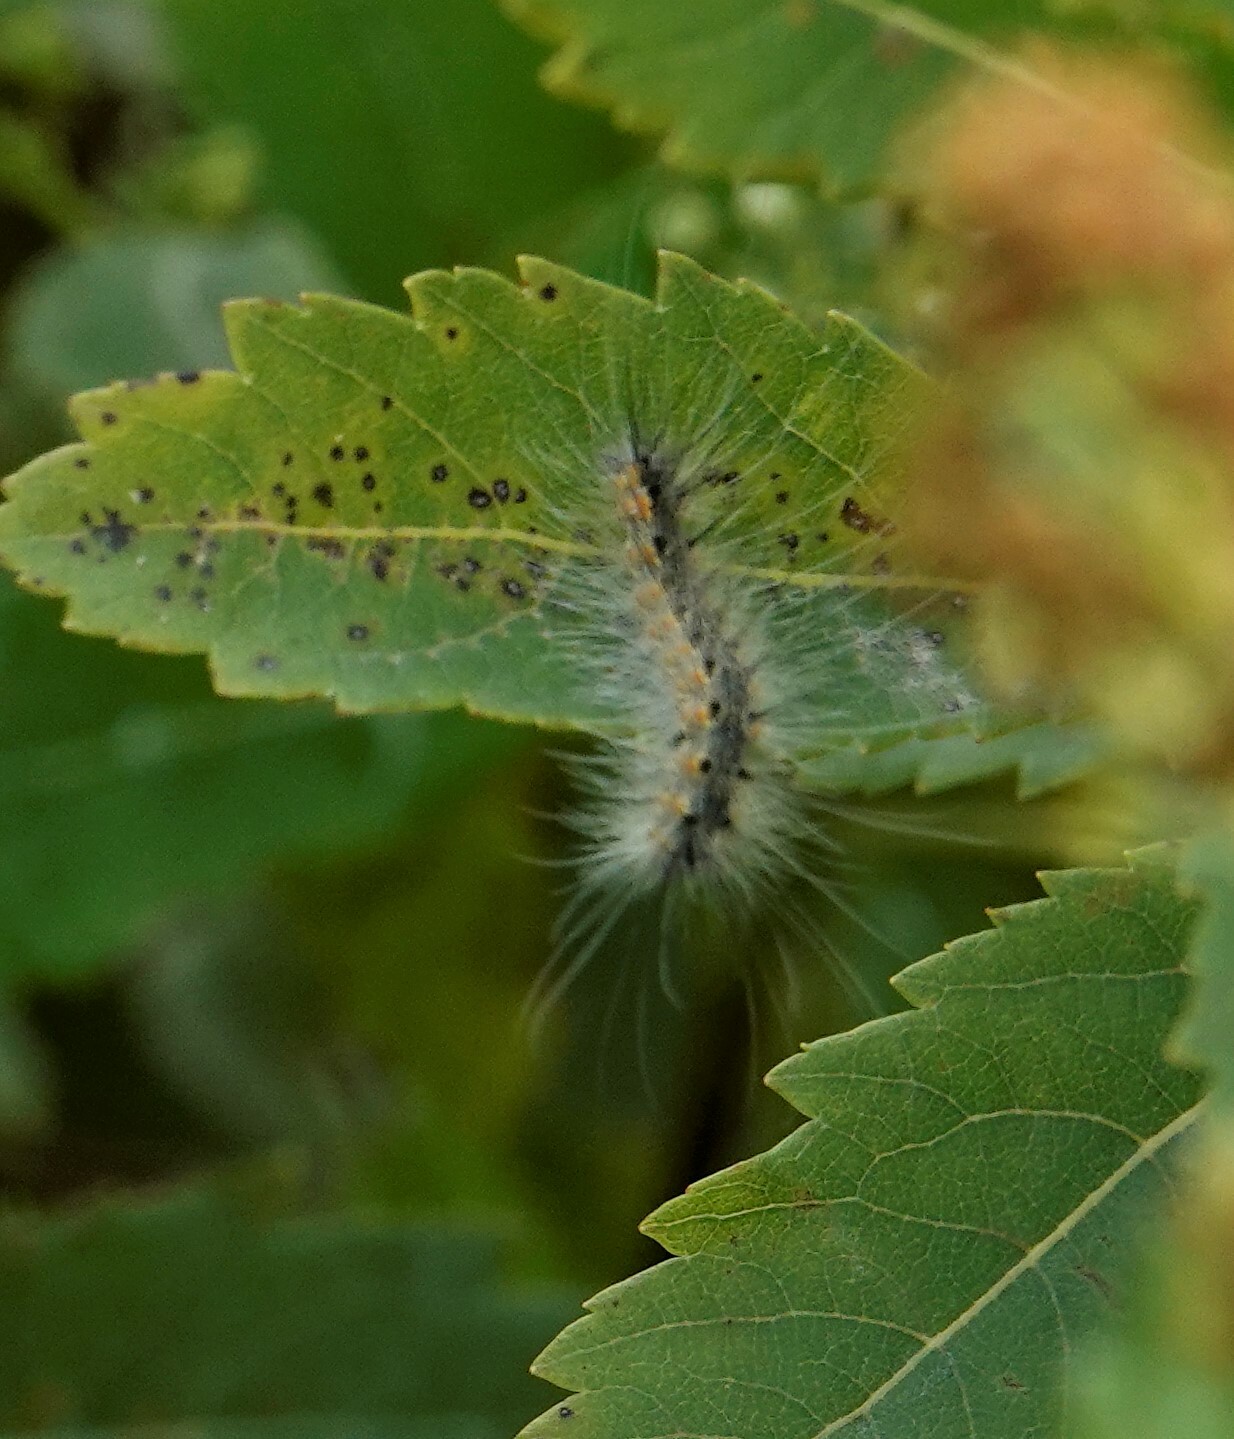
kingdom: Animalia
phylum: Arthropoda
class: Insecta
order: Lepidoptera
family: Erebidae
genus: Hyphantria
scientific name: Hyphantria cunea
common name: American white moth
